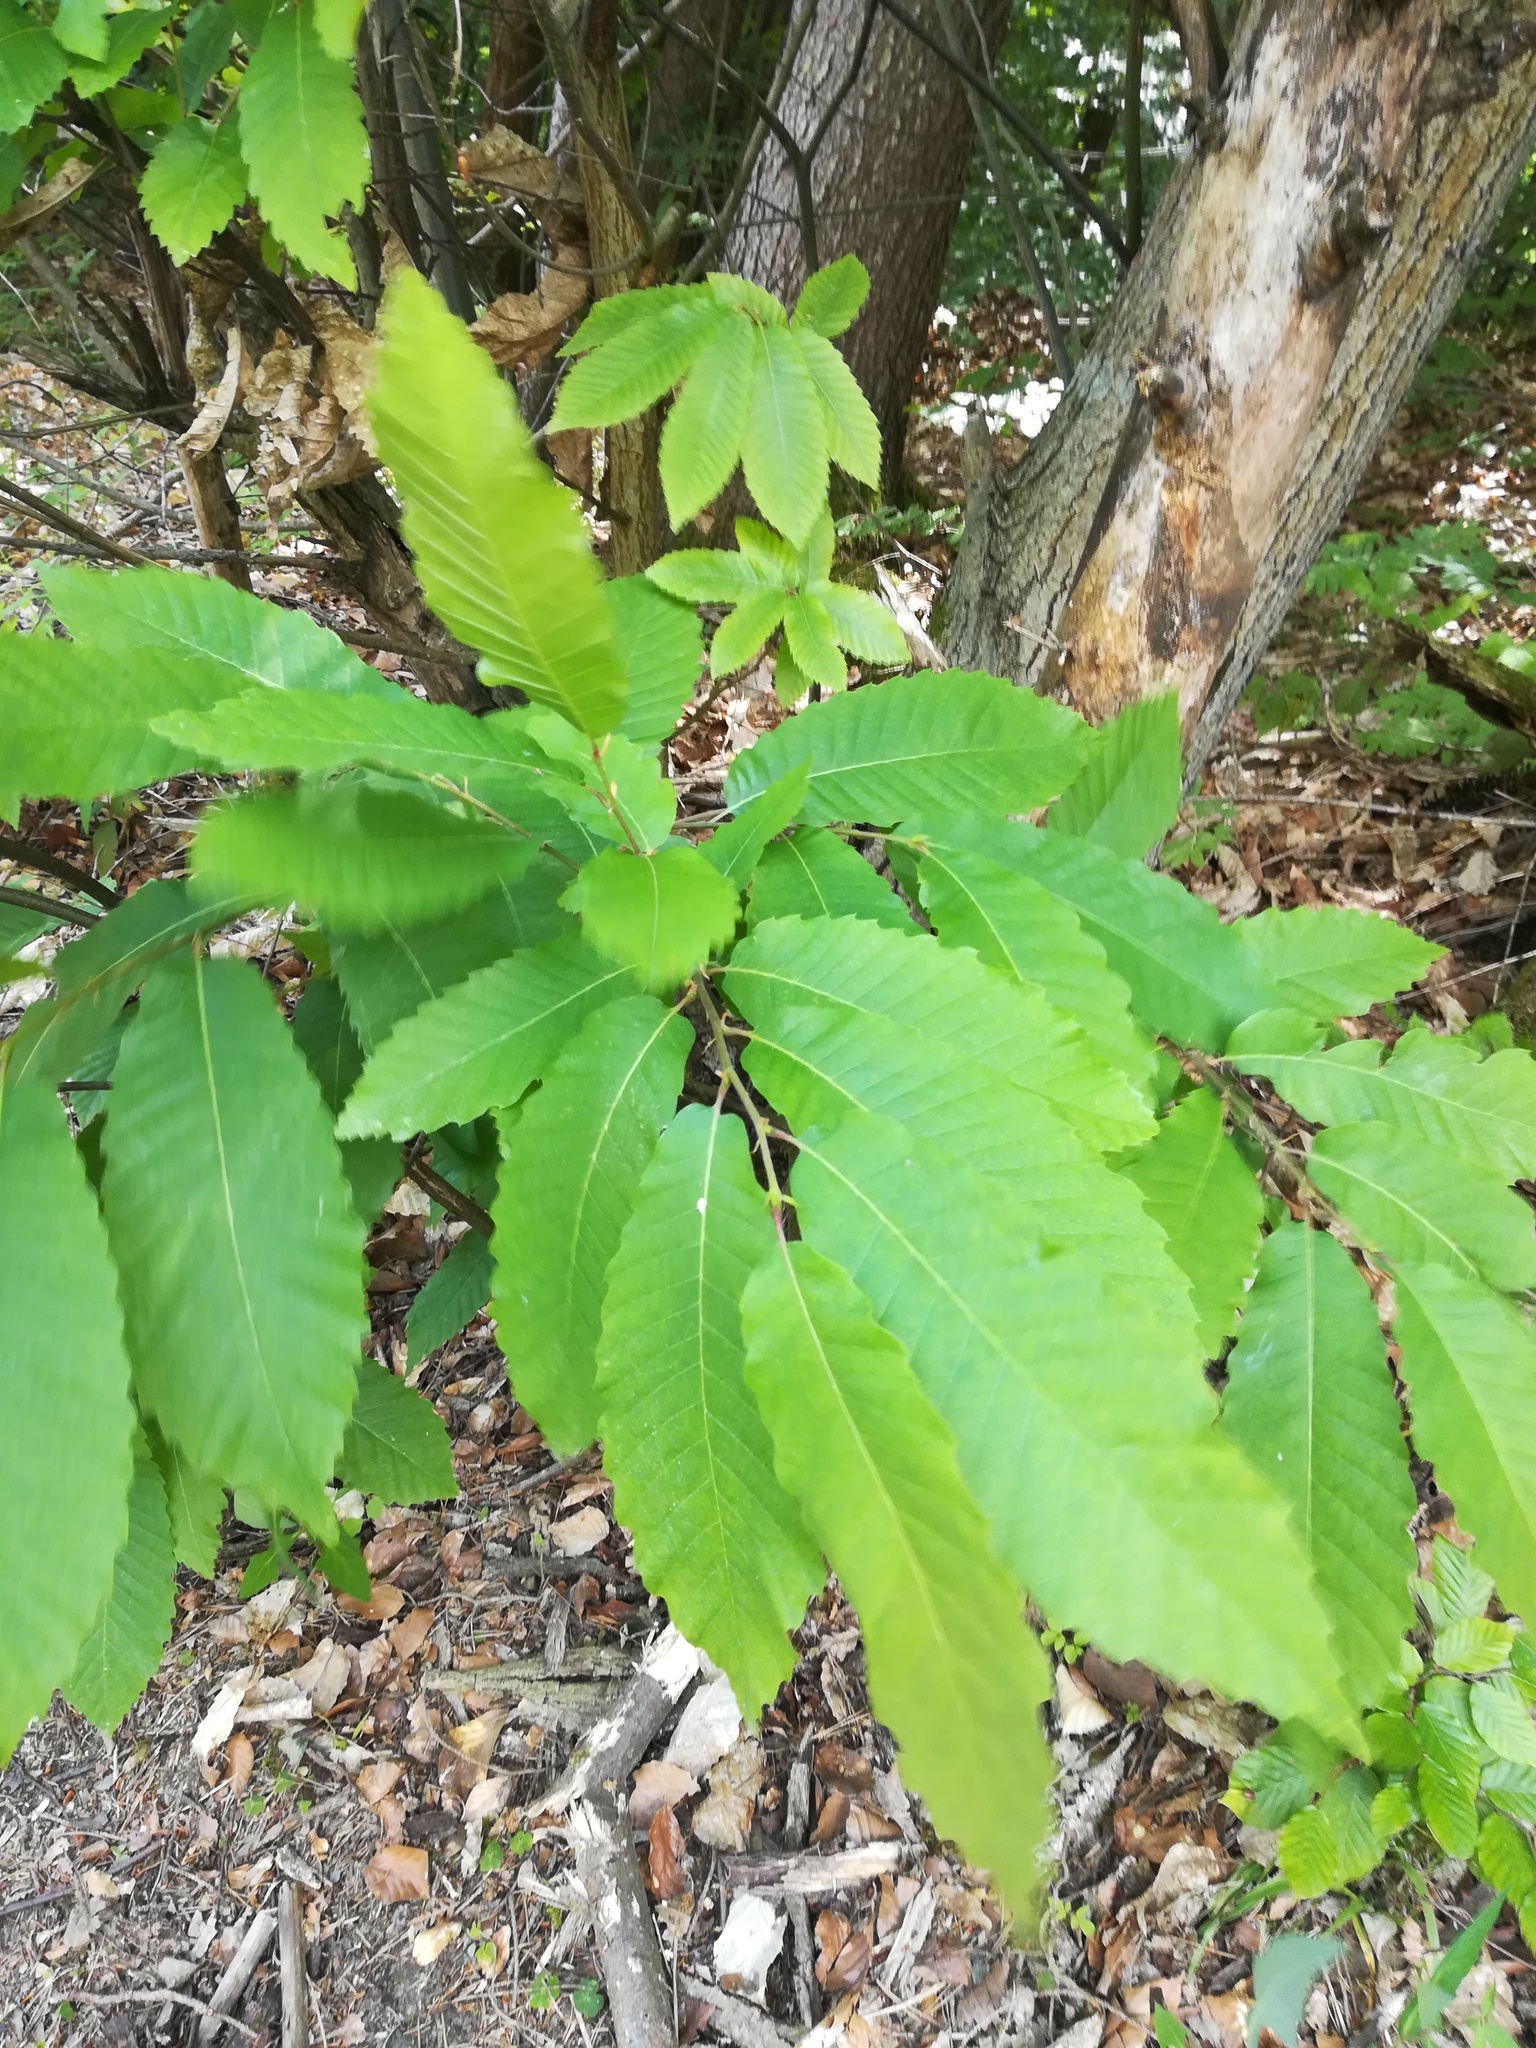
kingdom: Plantae
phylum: Tracheophyta
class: Magnoliopsida
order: Fagales
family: Fagaceae
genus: Castanea
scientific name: Castanea sativa
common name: Sweet chestnut
